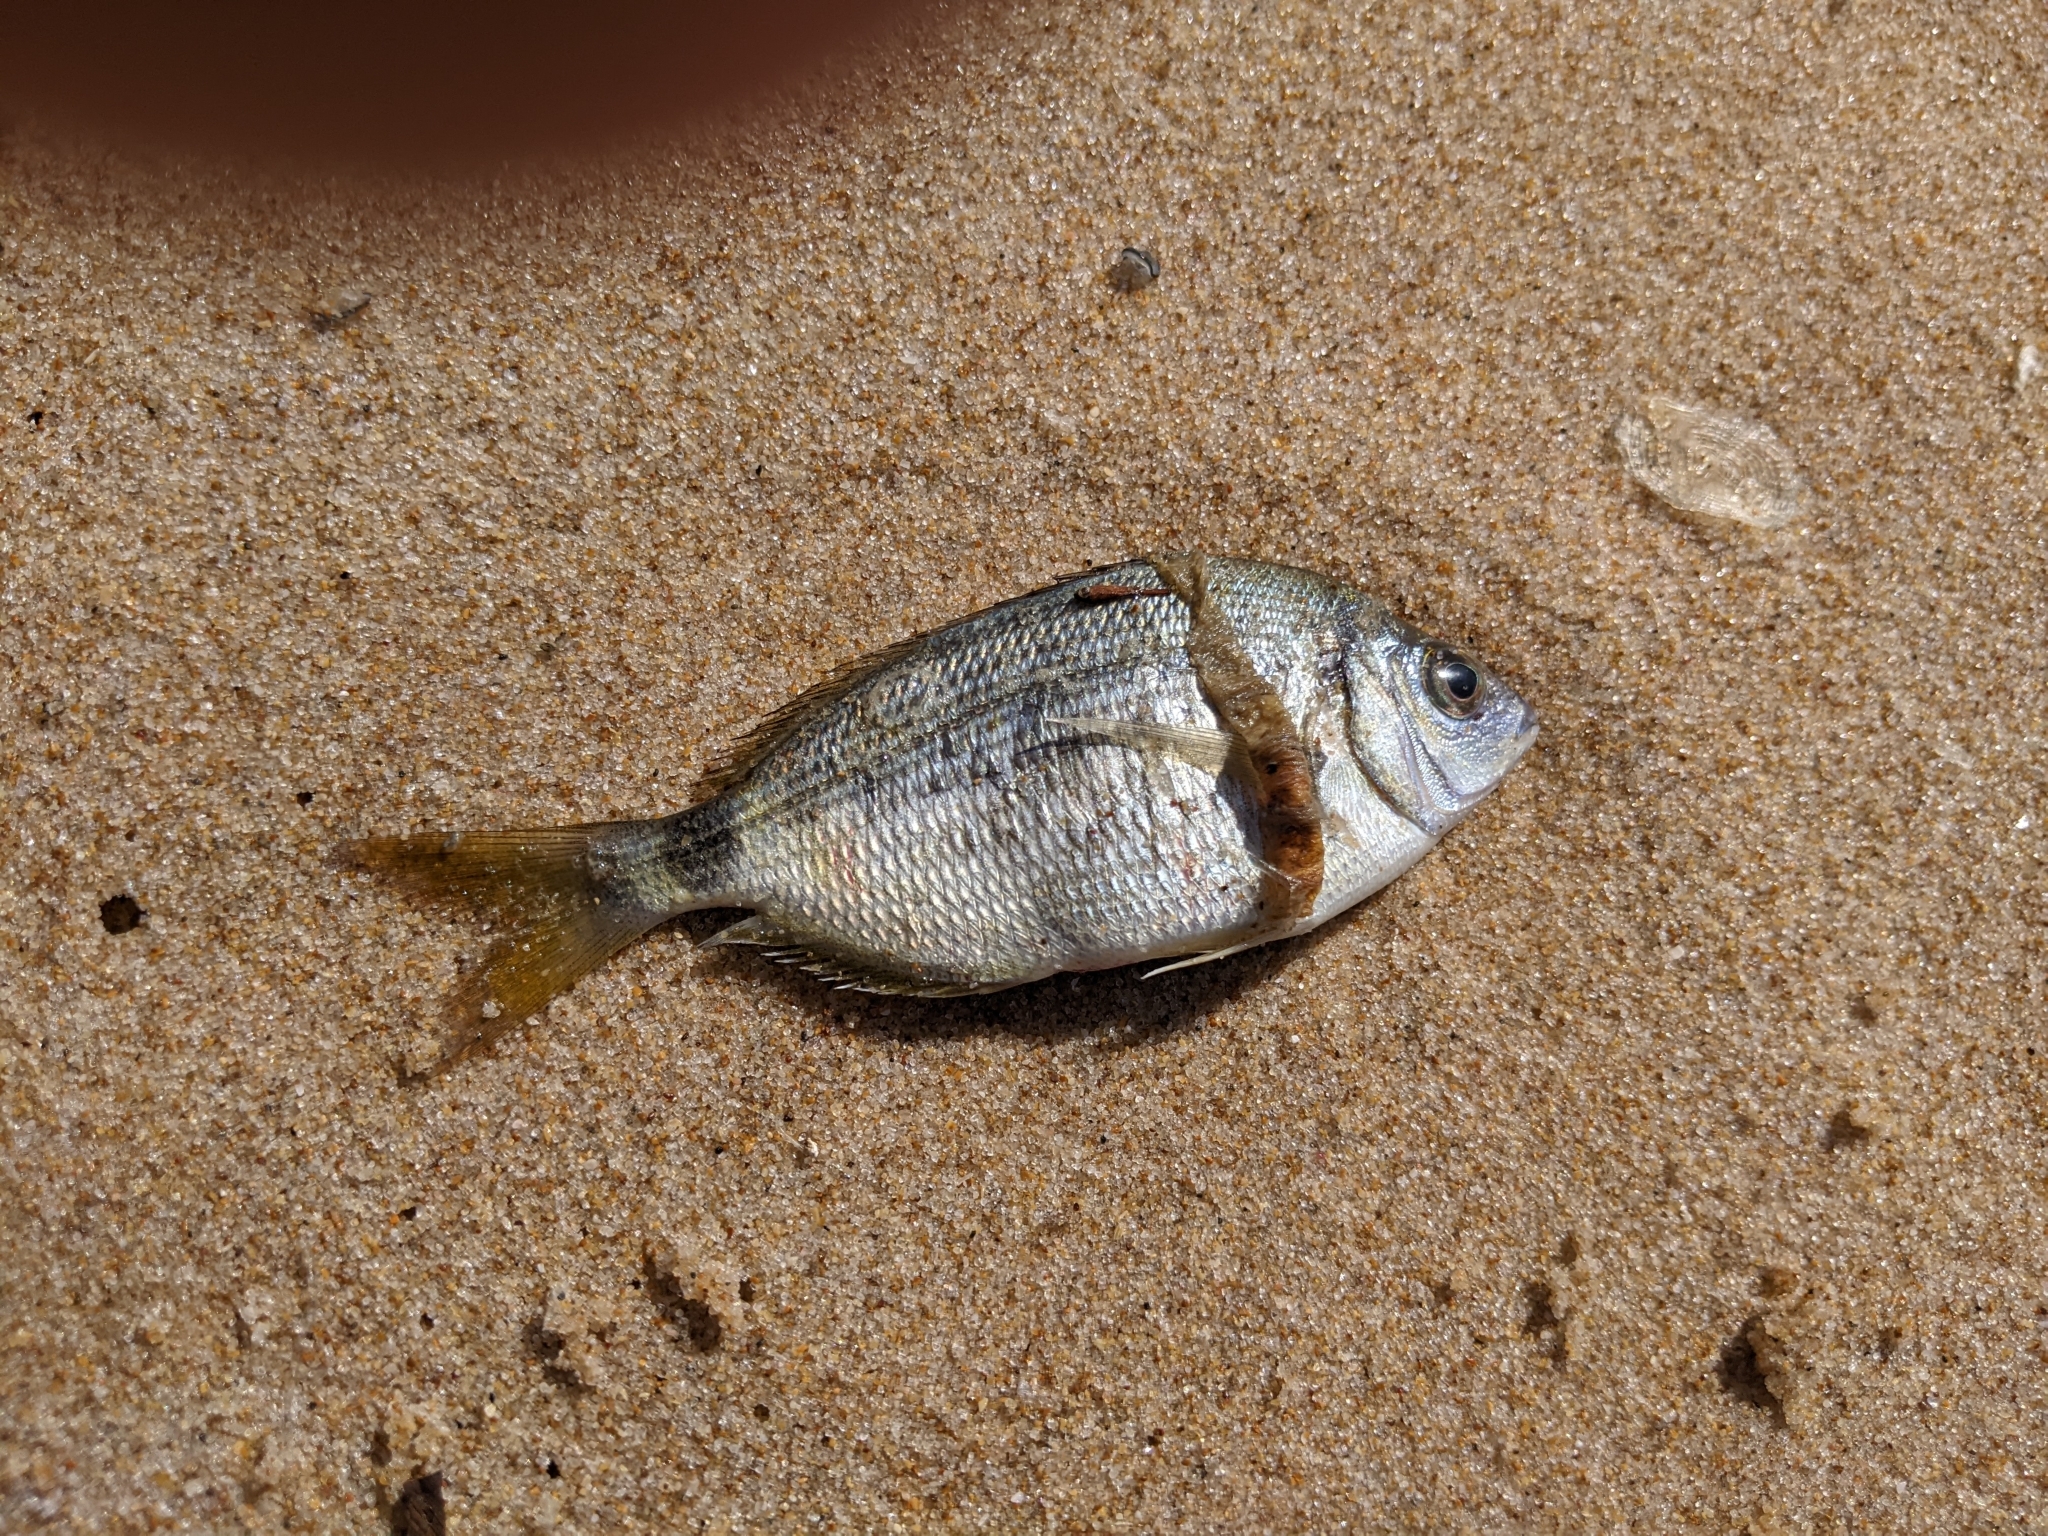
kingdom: Animalia
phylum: Chordata
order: Perciformes
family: Sparidae
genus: Diplodus
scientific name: Diplodus bellottii
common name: Senegal seabream
